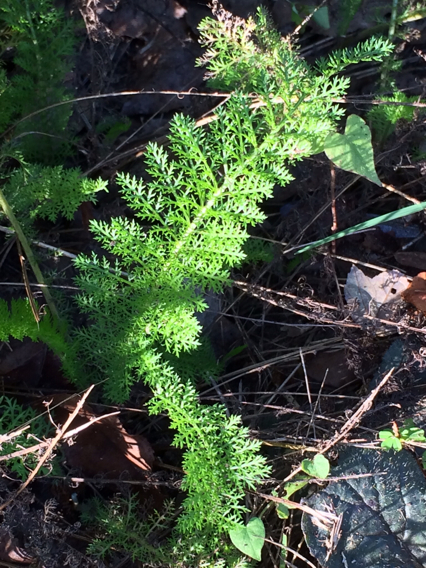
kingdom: Plantae
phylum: Tracheophyta
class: Magnoliopsida
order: Asterales
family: Asteraceae
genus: Achillea
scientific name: Achillea millefolium
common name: Yarrow
